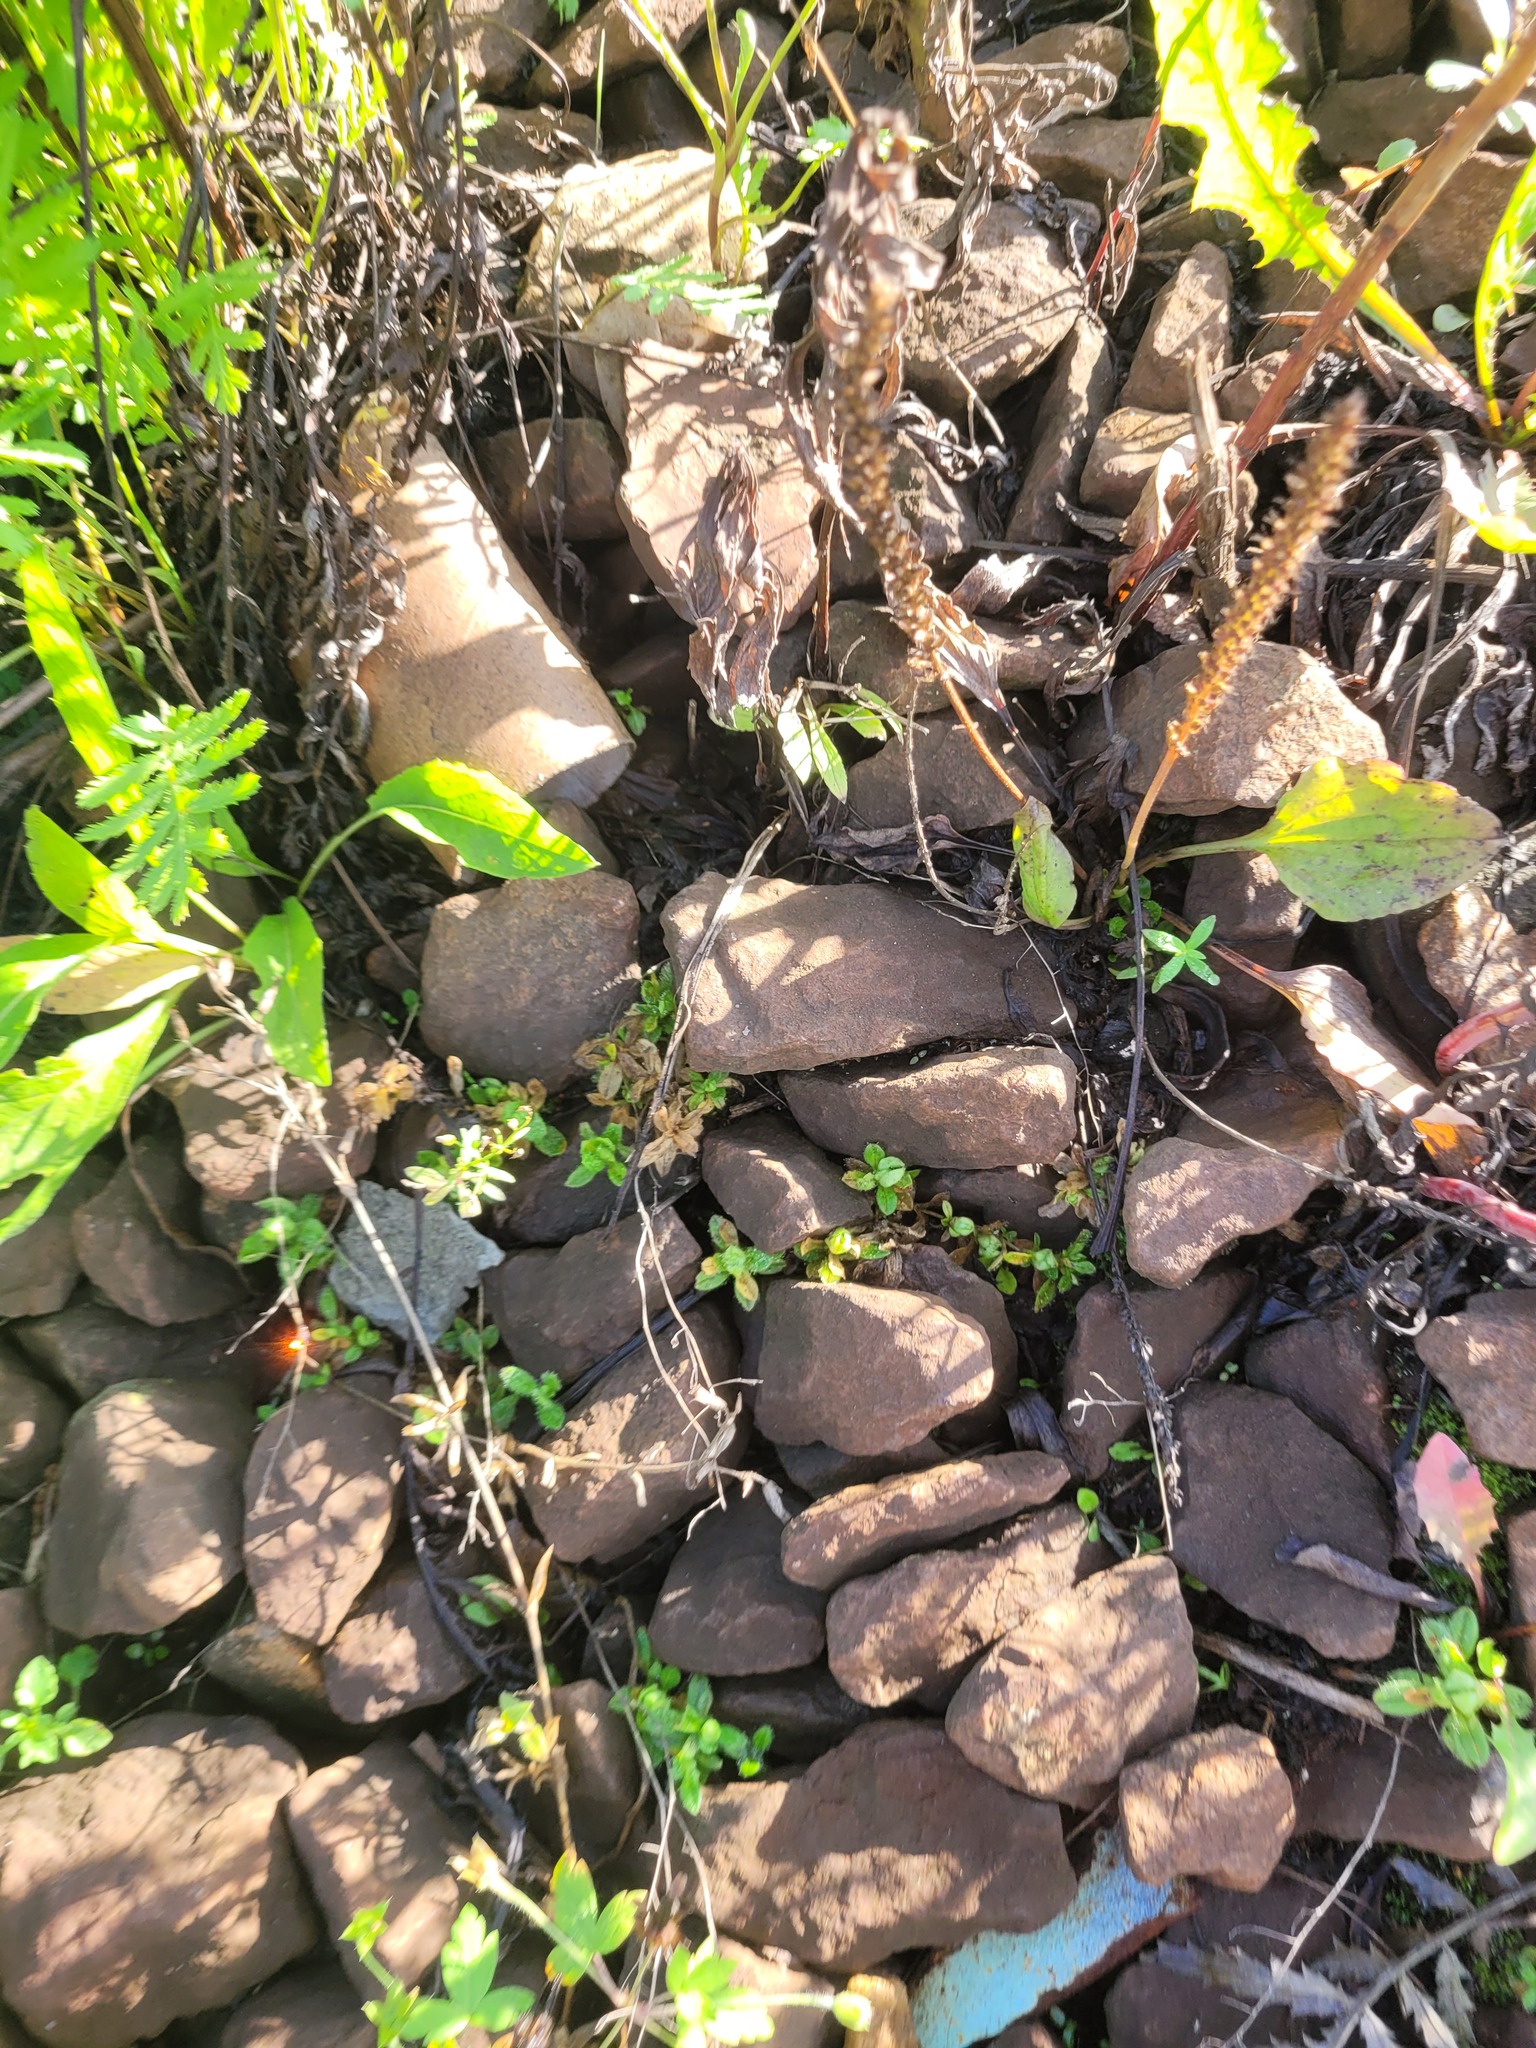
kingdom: Plantae
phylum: Tracheophyta
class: Magnoliopsida
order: Caryophyllales
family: Caryophyllaceae
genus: Cerastium
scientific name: Cerastium holosteoides
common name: Big chickweed
